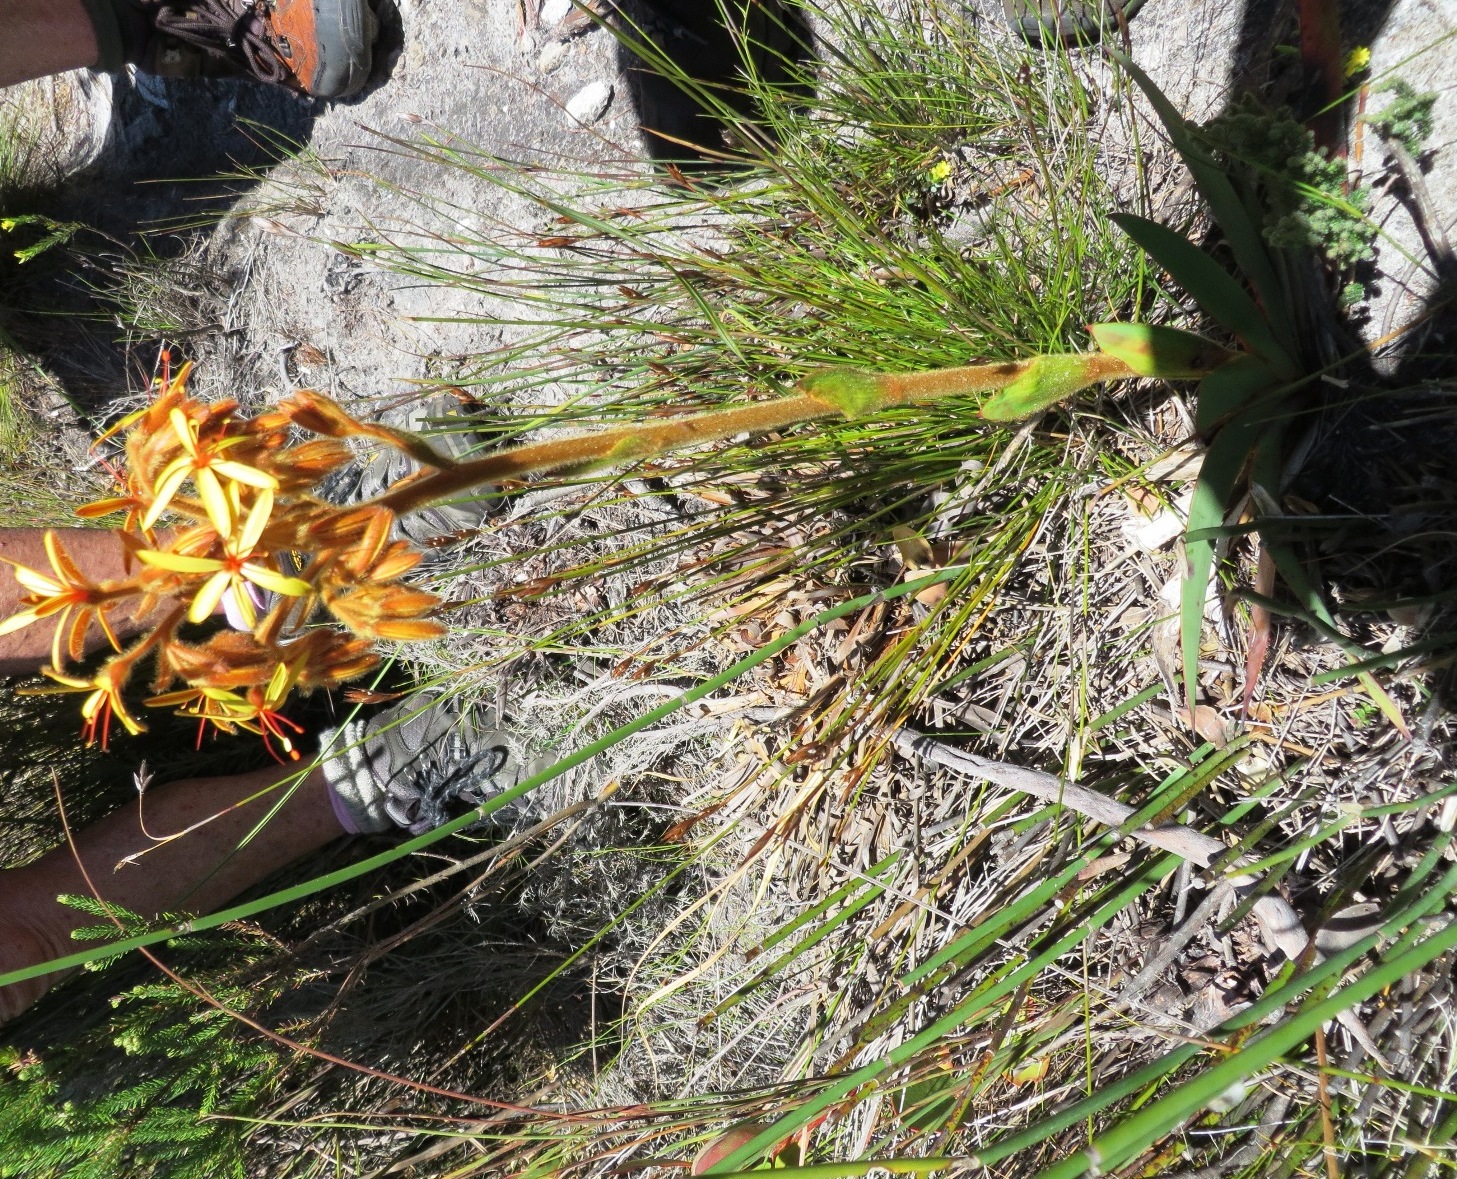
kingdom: Plantae
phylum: Tracheophyta
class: Liliopsida
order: Commelinales
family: Haemodoraceae
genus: Dilatris
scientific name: Dilatris viscosa
